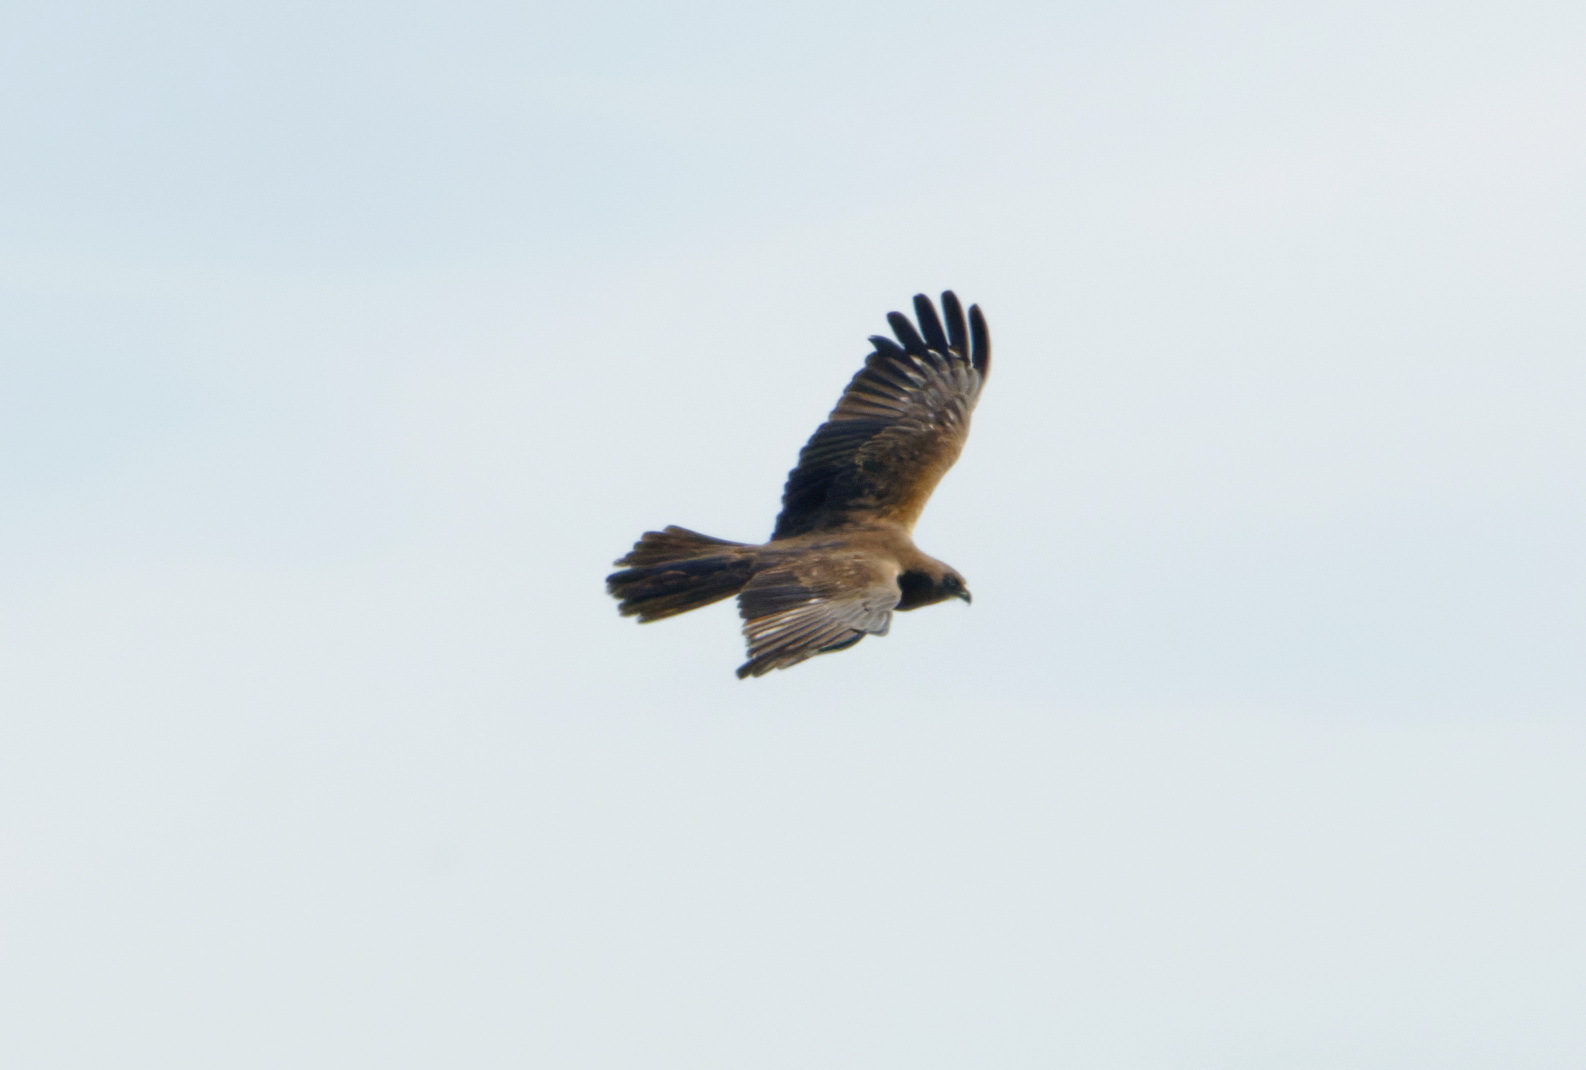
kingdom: Animalia
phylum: Chordata
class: Aves
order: Accipitriformes
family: Accipitridae
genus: Circus
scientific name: Circus aeruginosus
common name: Western marsh harrier
